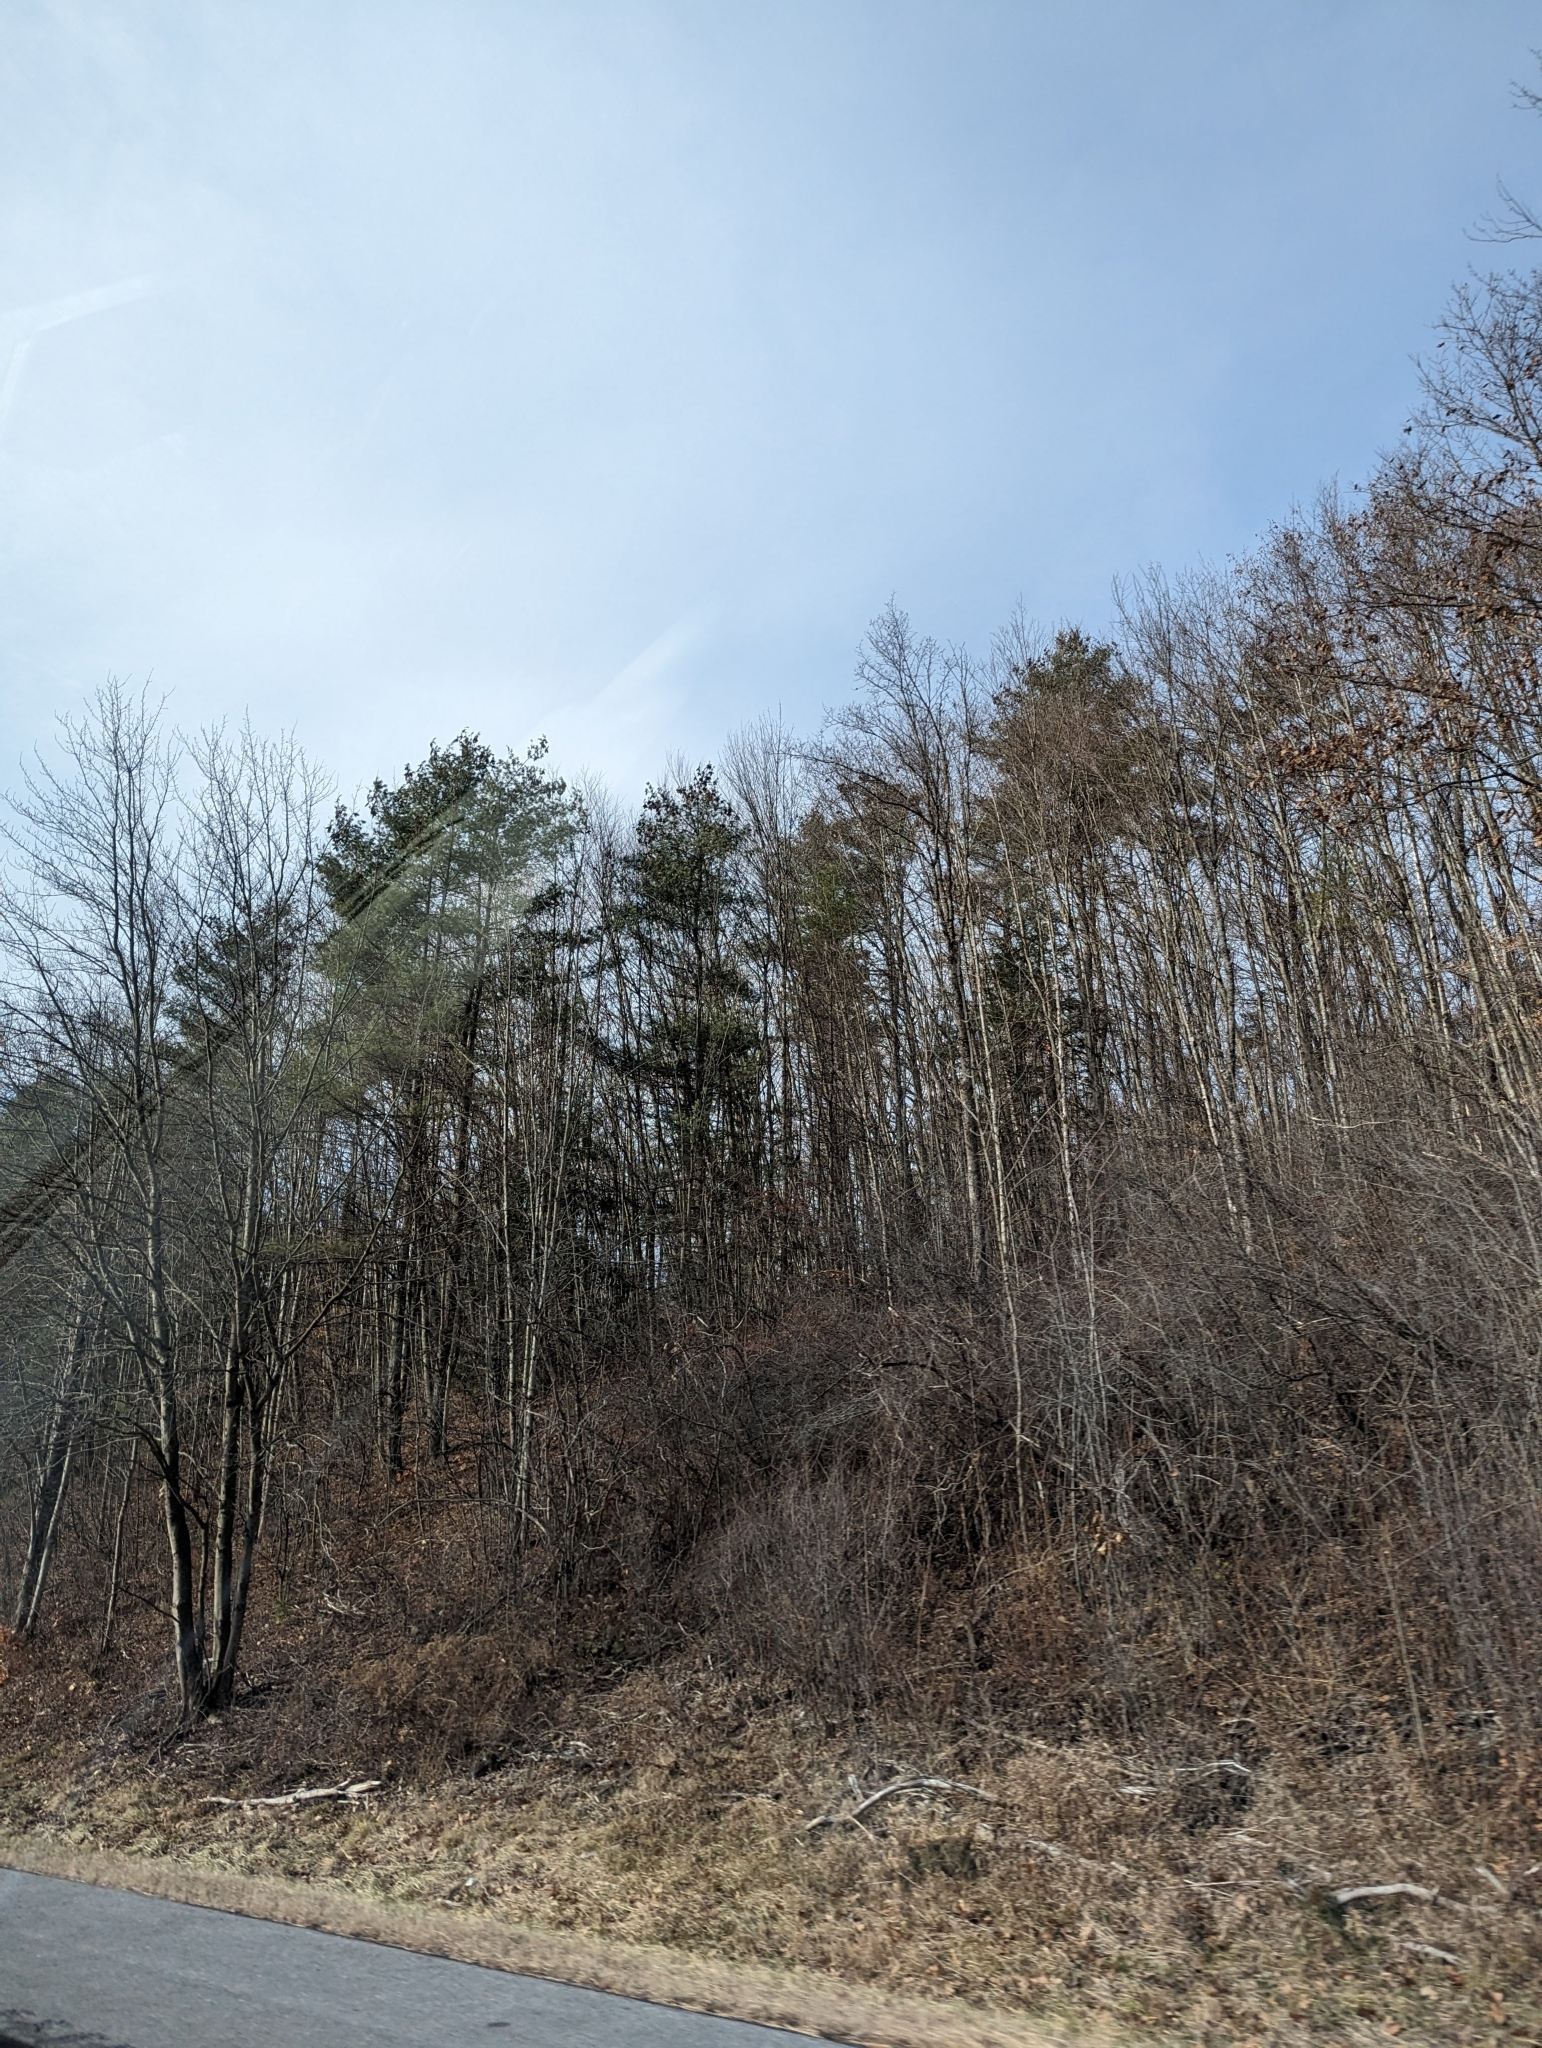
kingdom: Plantae
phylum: Tracheophyta
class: Pinopsida
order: Pinales
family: Pinaceae
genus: Pinus
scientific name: Pinus strobus
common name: Weymouth pine
